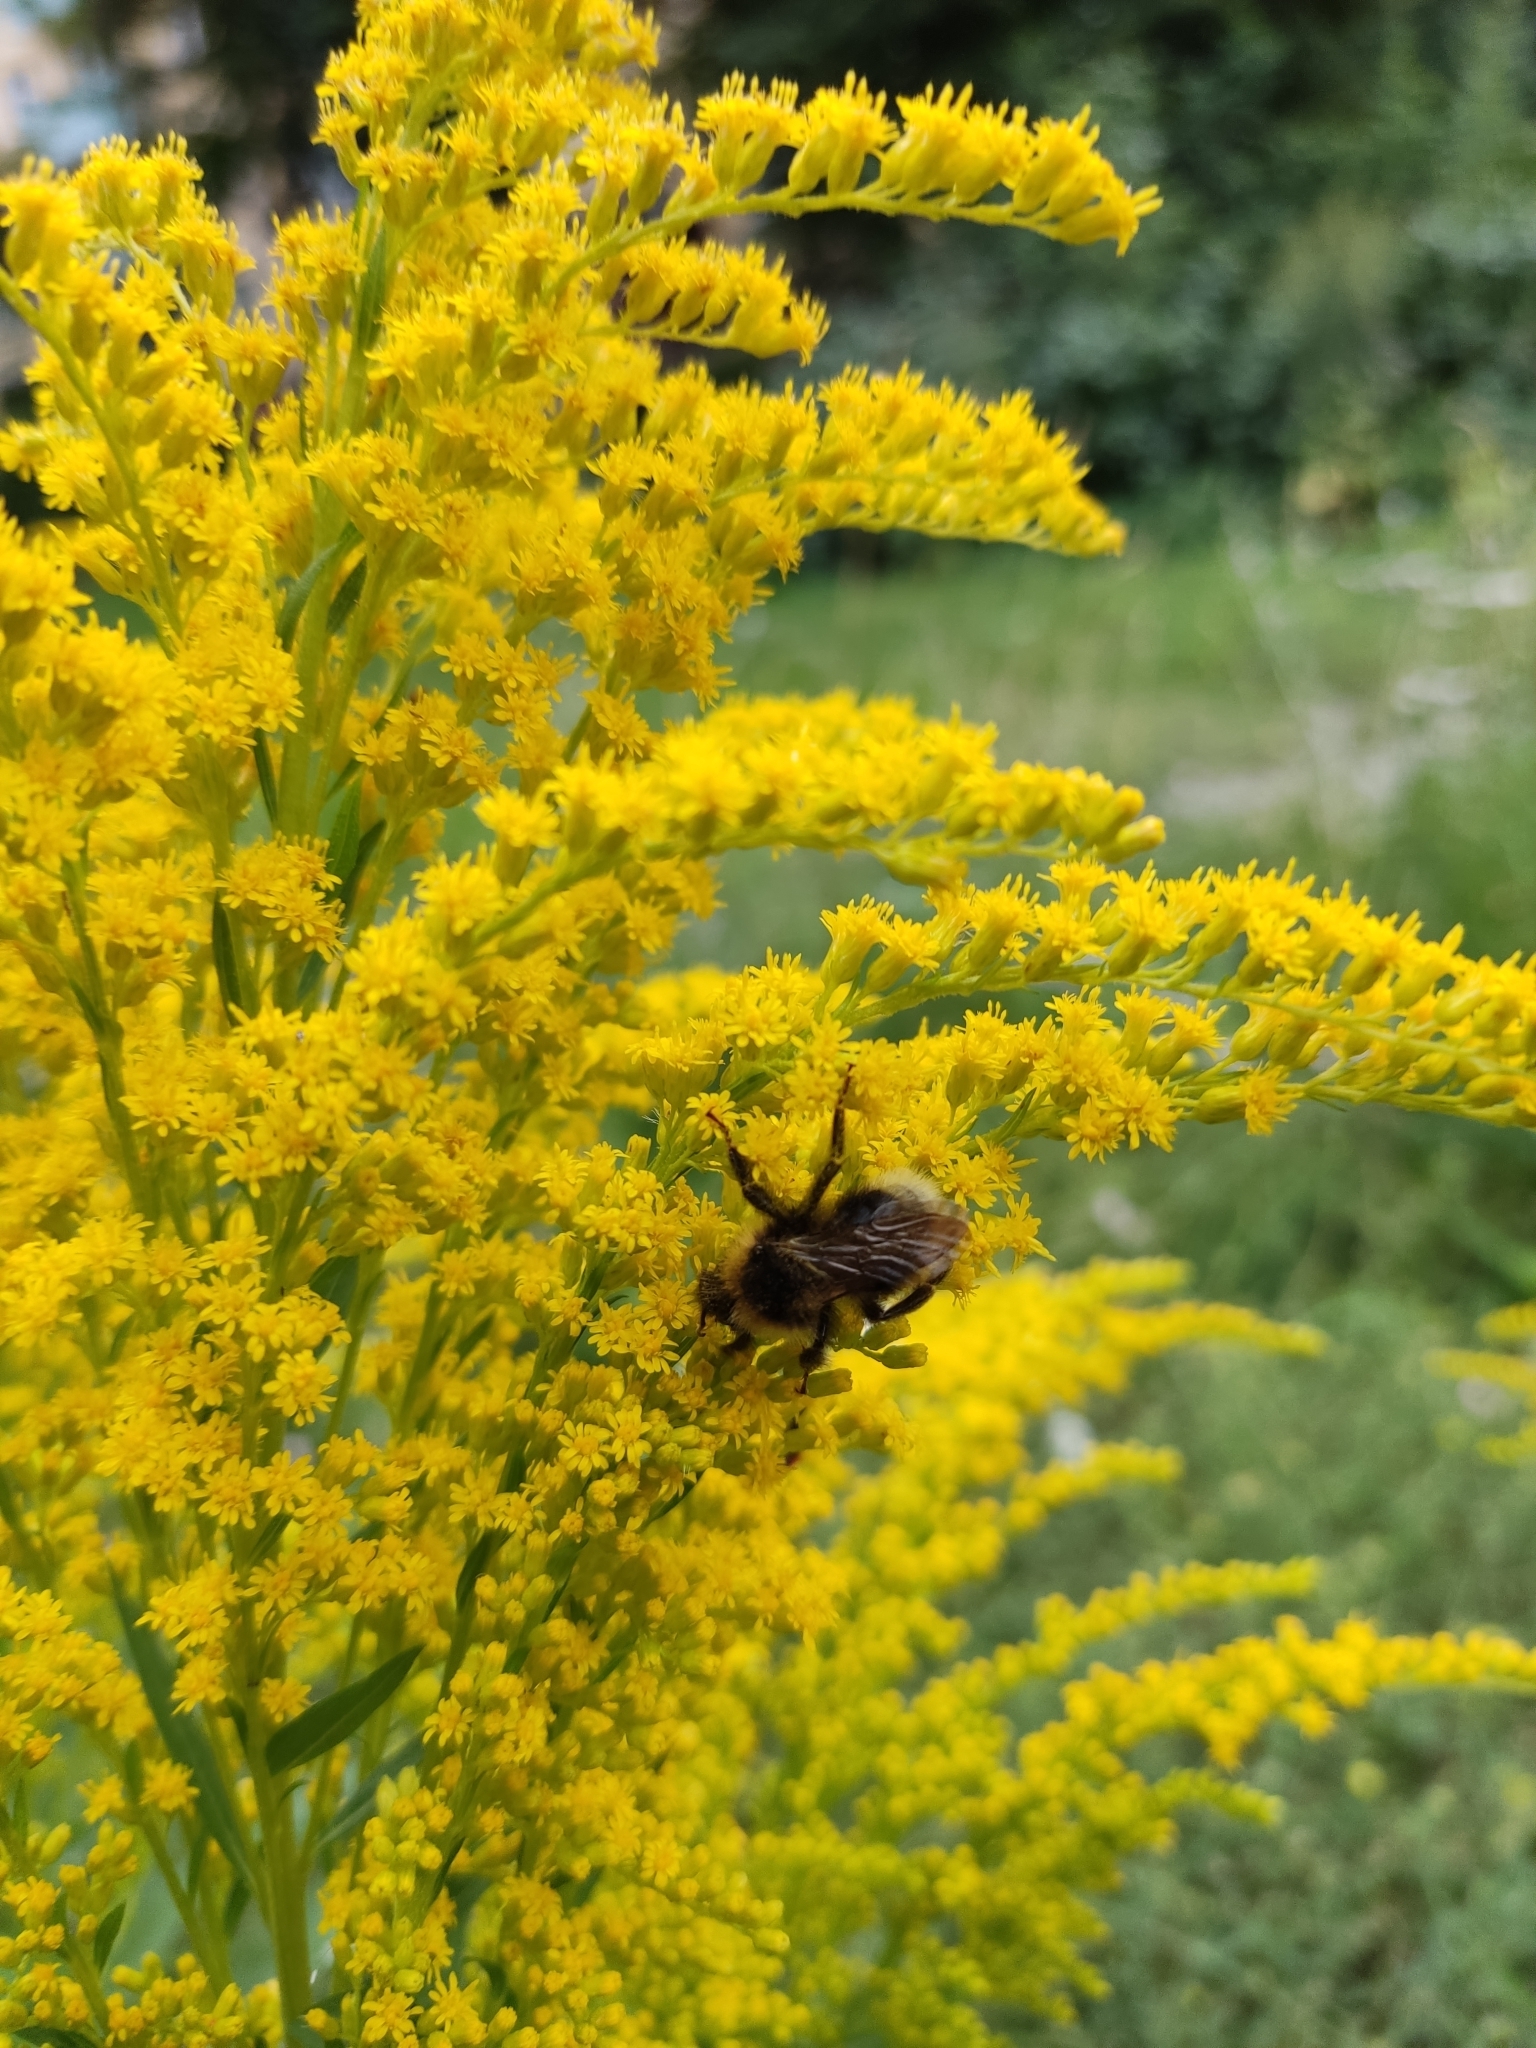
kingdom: Animalia
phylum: Arthropoda
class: Insecta
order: Hymenoptera
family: Apidae
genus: Bombus
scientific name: Bombus bohemicus
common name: Gypsy cuckoo bee
